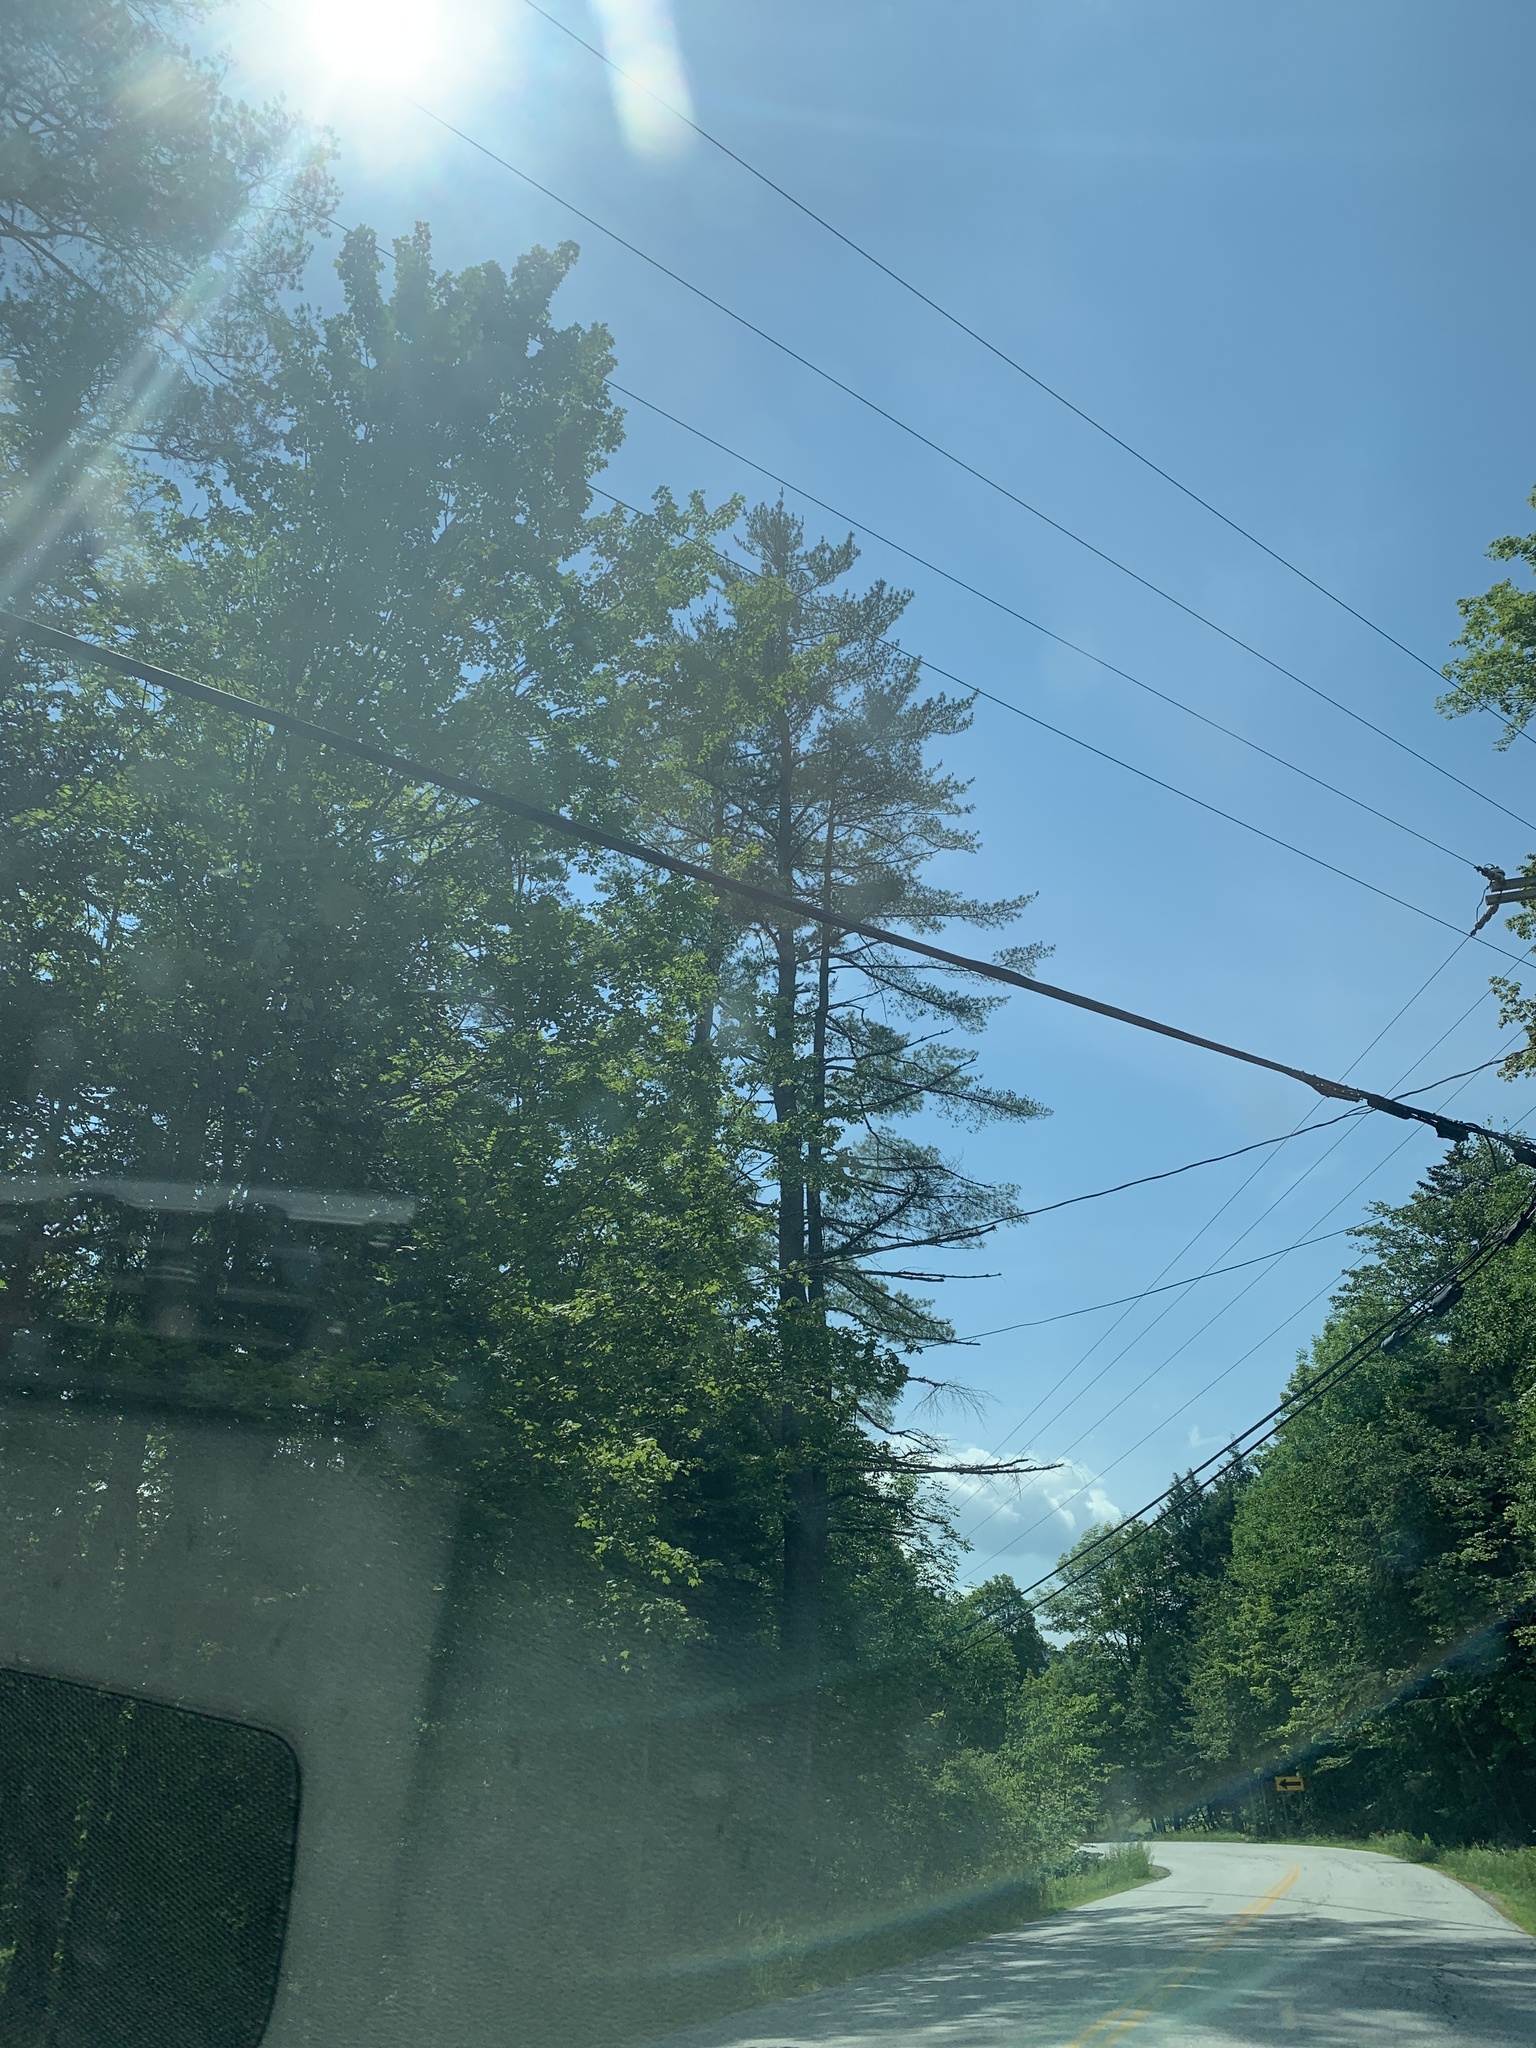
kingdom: Plantae
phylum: Tracheophyta
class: Pinopsida
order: Pinales
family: Pinaceae
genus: Pinus
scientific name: Pinus strobus
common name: Weymouth pine
